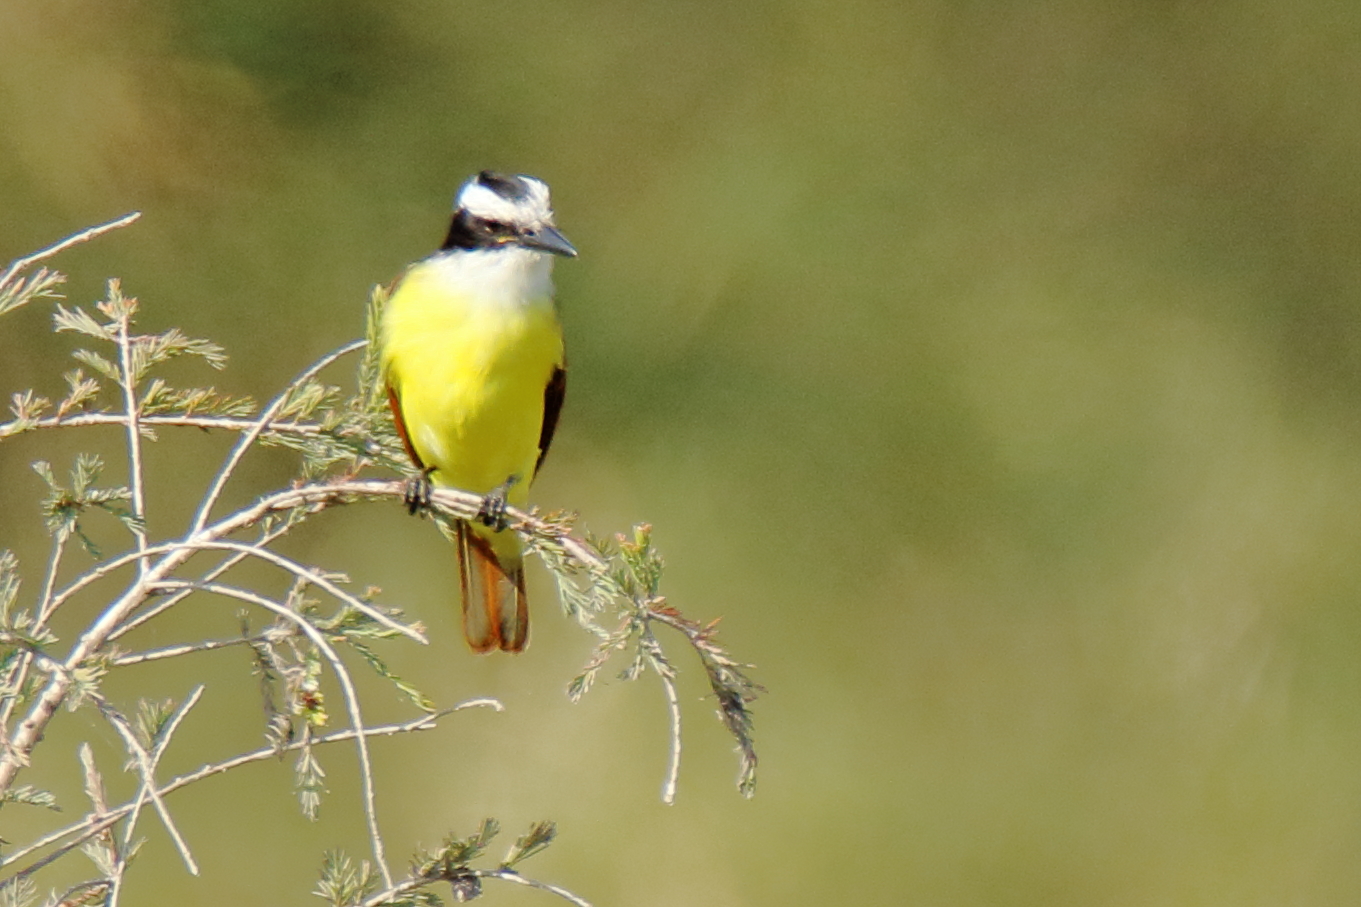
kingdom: Animalia
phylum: Chordata
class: Aves
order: Passeriformes
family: Tyrannidae
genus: Pitangus
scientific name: Pitangus sulphuratus
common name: Great kiskadee
